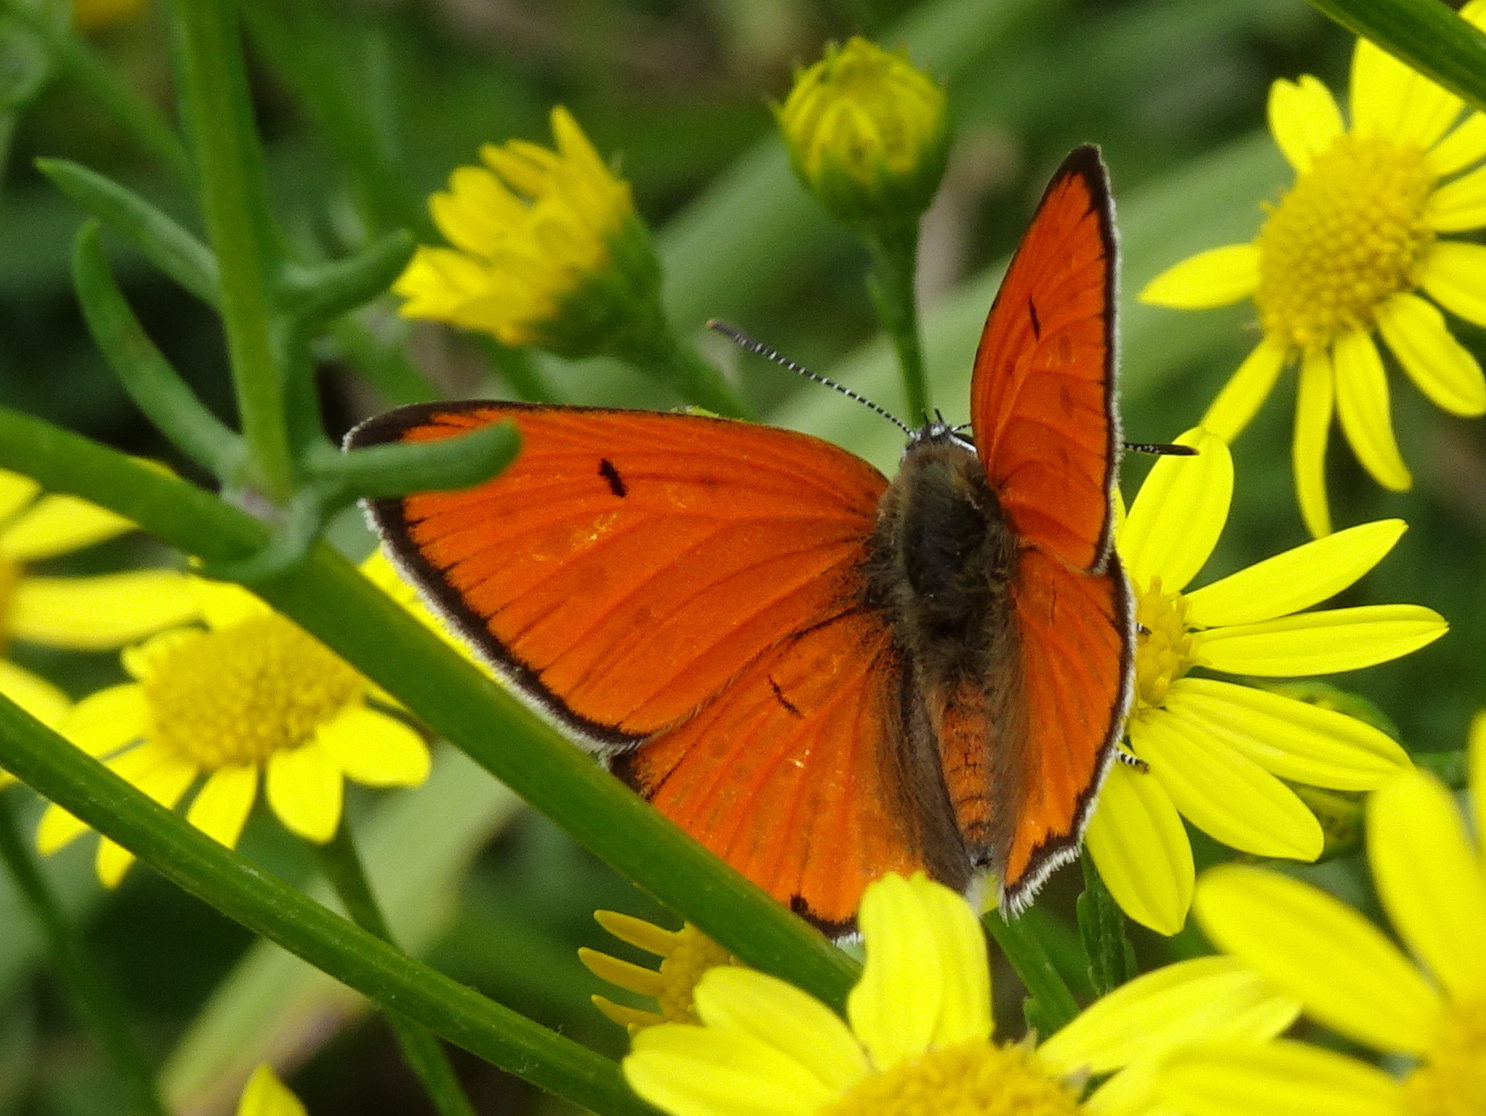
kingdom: Animalia
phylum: Arthropoda
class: Insecta
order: Lepidoptera
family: Lycaenidae
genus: Lycaena
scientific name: Lycaena dispar
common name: Large copper
